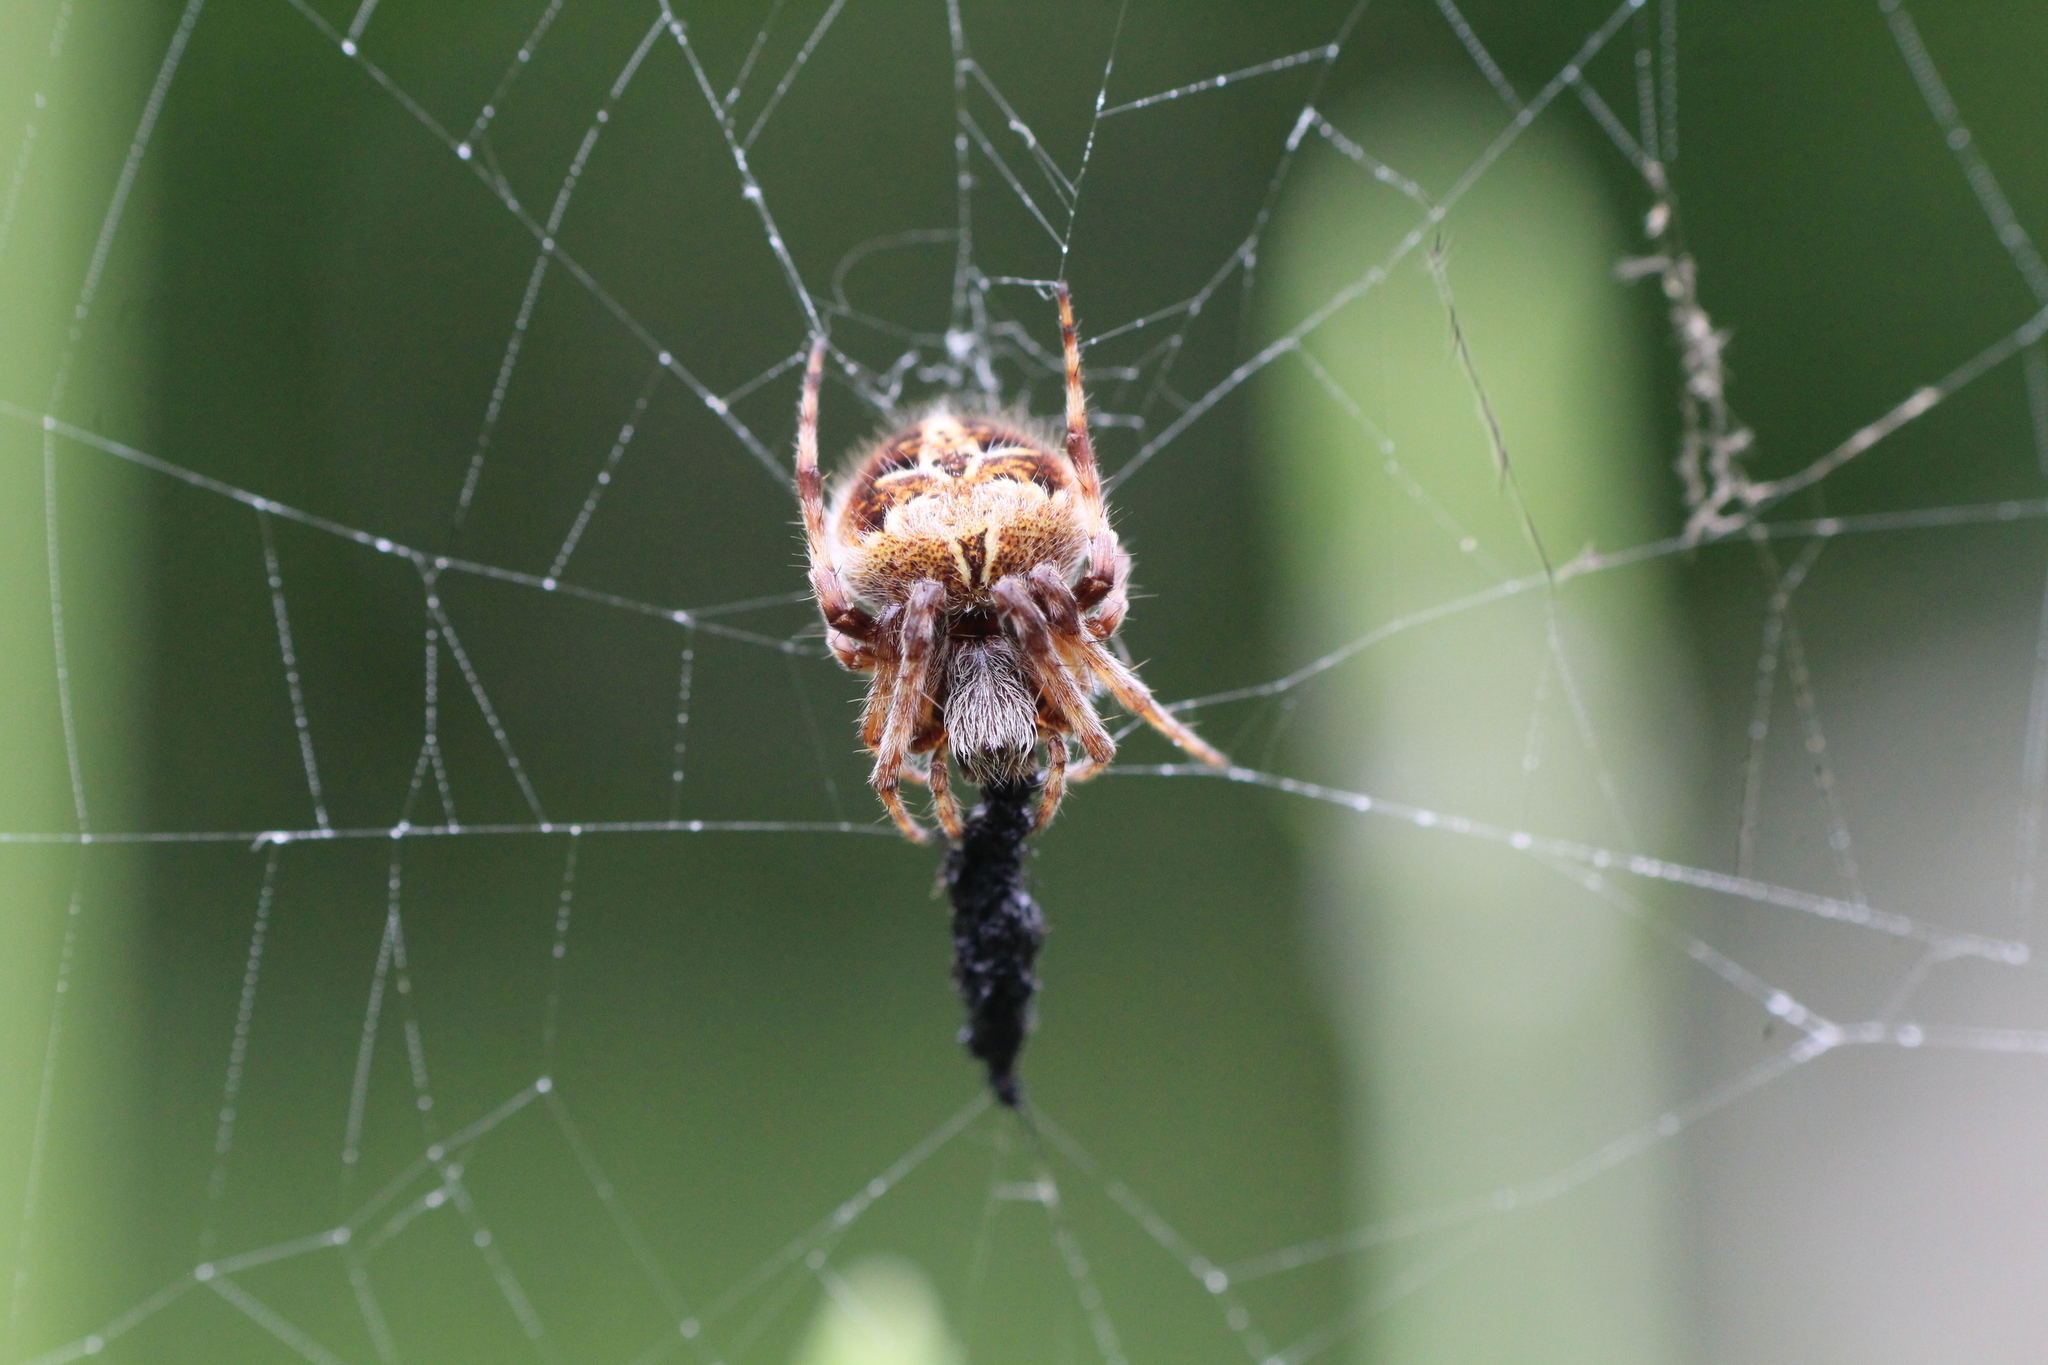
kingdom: Animalia
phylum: Arthropoda
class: Arachnida
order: Araneae
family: Araneidae
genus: Agalenatea
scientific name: Agalenatea redii
